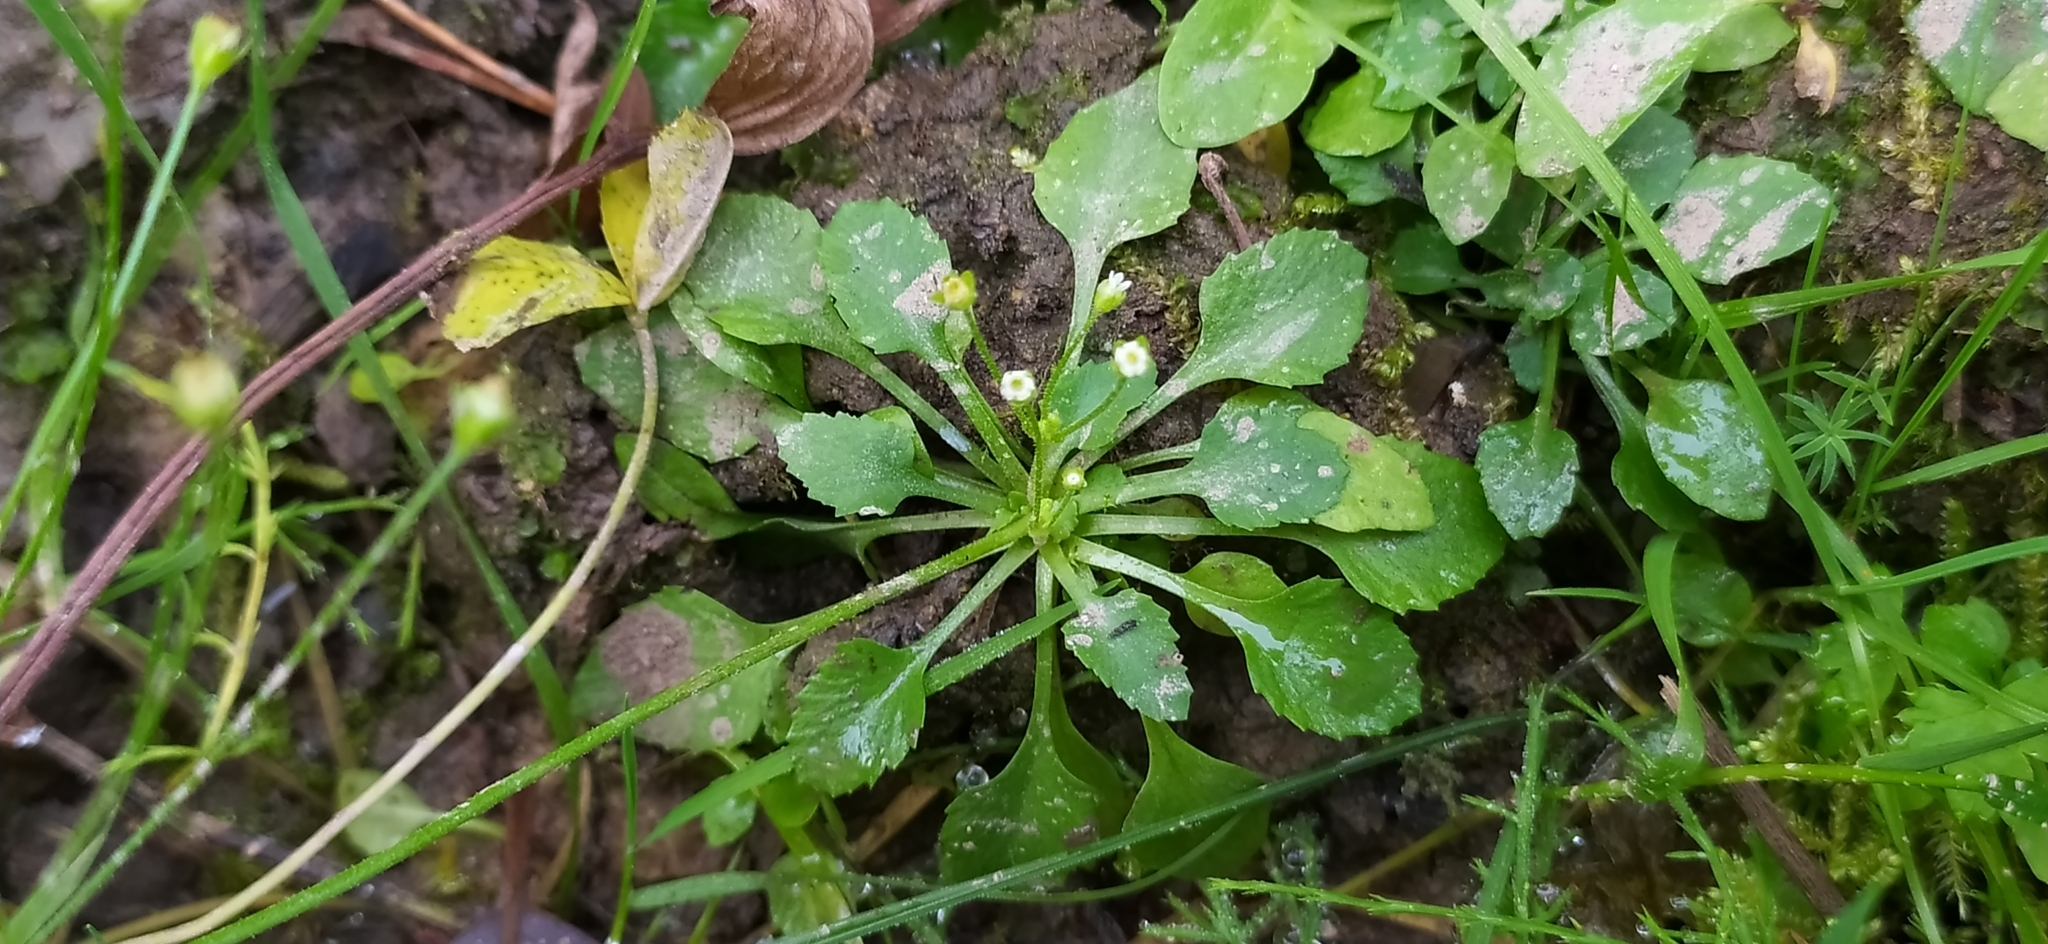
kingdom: Plantae
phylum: Tracheophyta
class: Magnoliopsida
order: Ericales
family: Primulaceae
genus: Androsace
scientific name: Androsace filiformis
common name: Filiform rock jasmine
